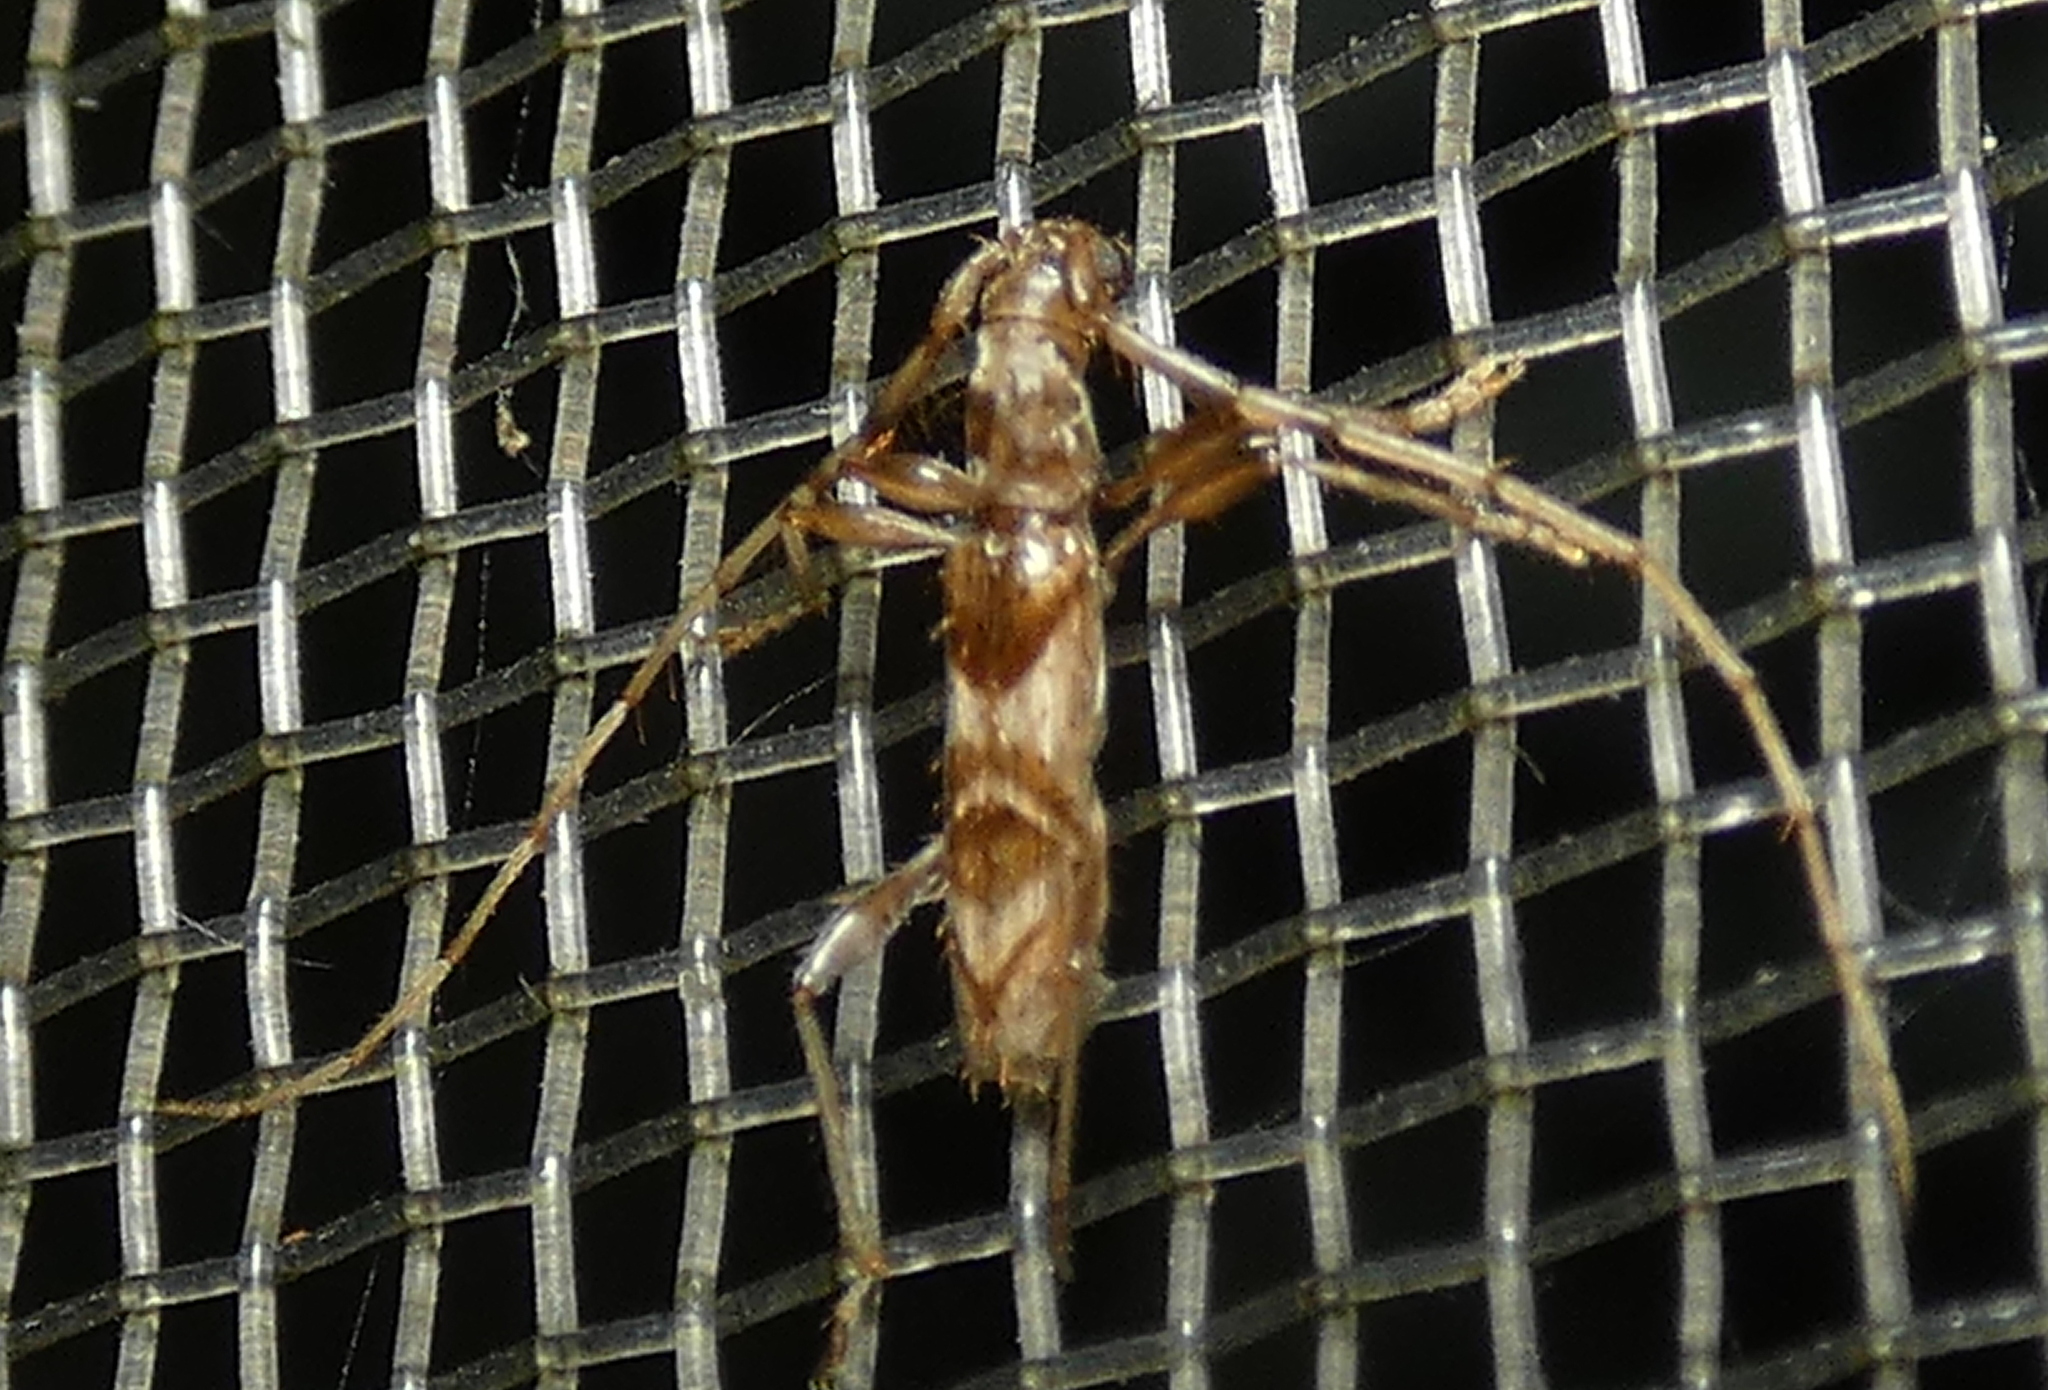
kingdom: Animalia
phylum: Arthropoda
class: Insecta
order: Coleoptera
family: Cerambycidae
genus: Compsibidion
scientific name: Compsibidion vanum
